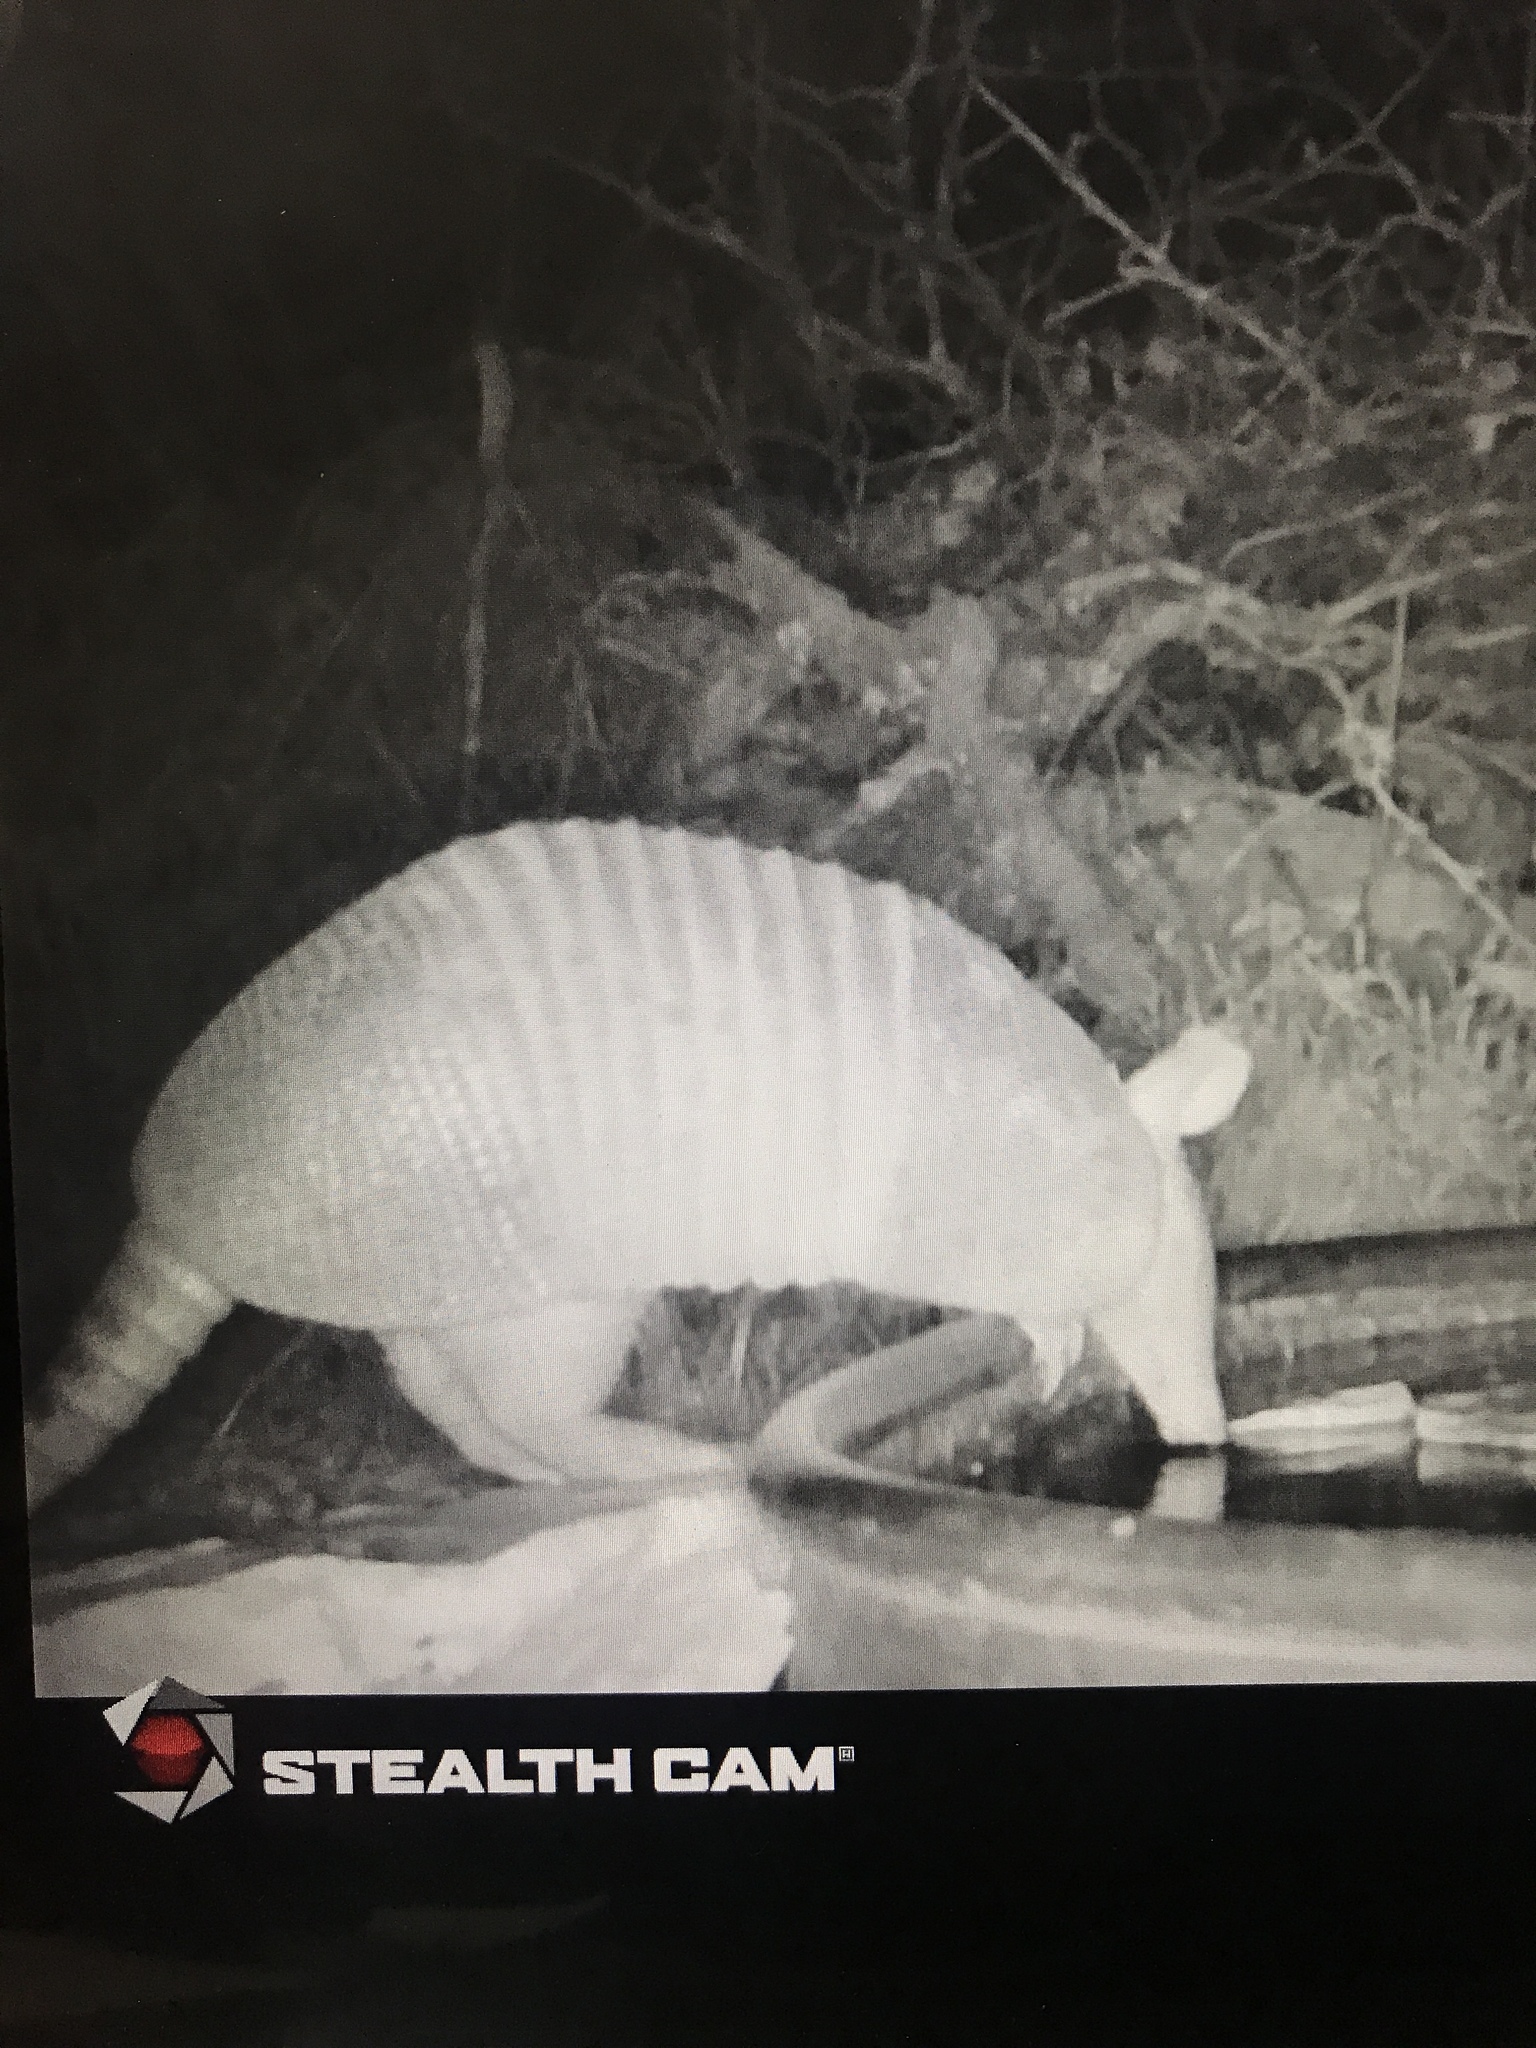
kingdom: Animalia
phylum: Chordata
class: Mammalia
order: Cingulata
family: Dasypodidae
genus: Dasypus
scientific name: Dasypus novemcinctus
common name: Nine-banded armadillo
